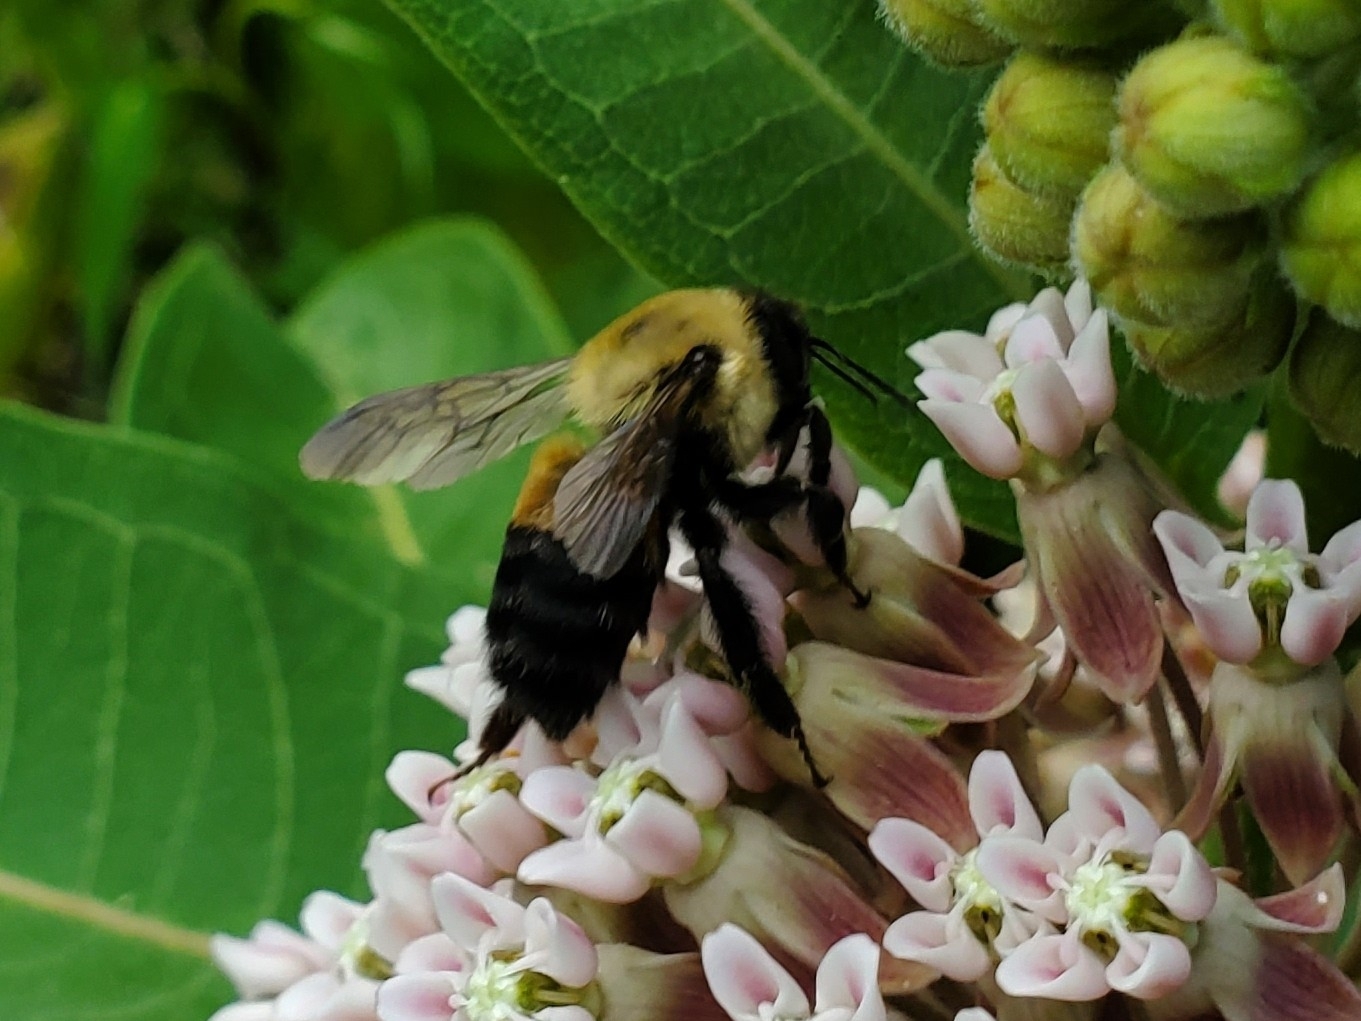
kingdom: Animalia
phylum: Arthropoda
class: Insecta
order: Hymenoptera
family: Apidae
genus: Bombus
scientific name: Bombus griseocollis
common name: Brown-belted bumble bee
